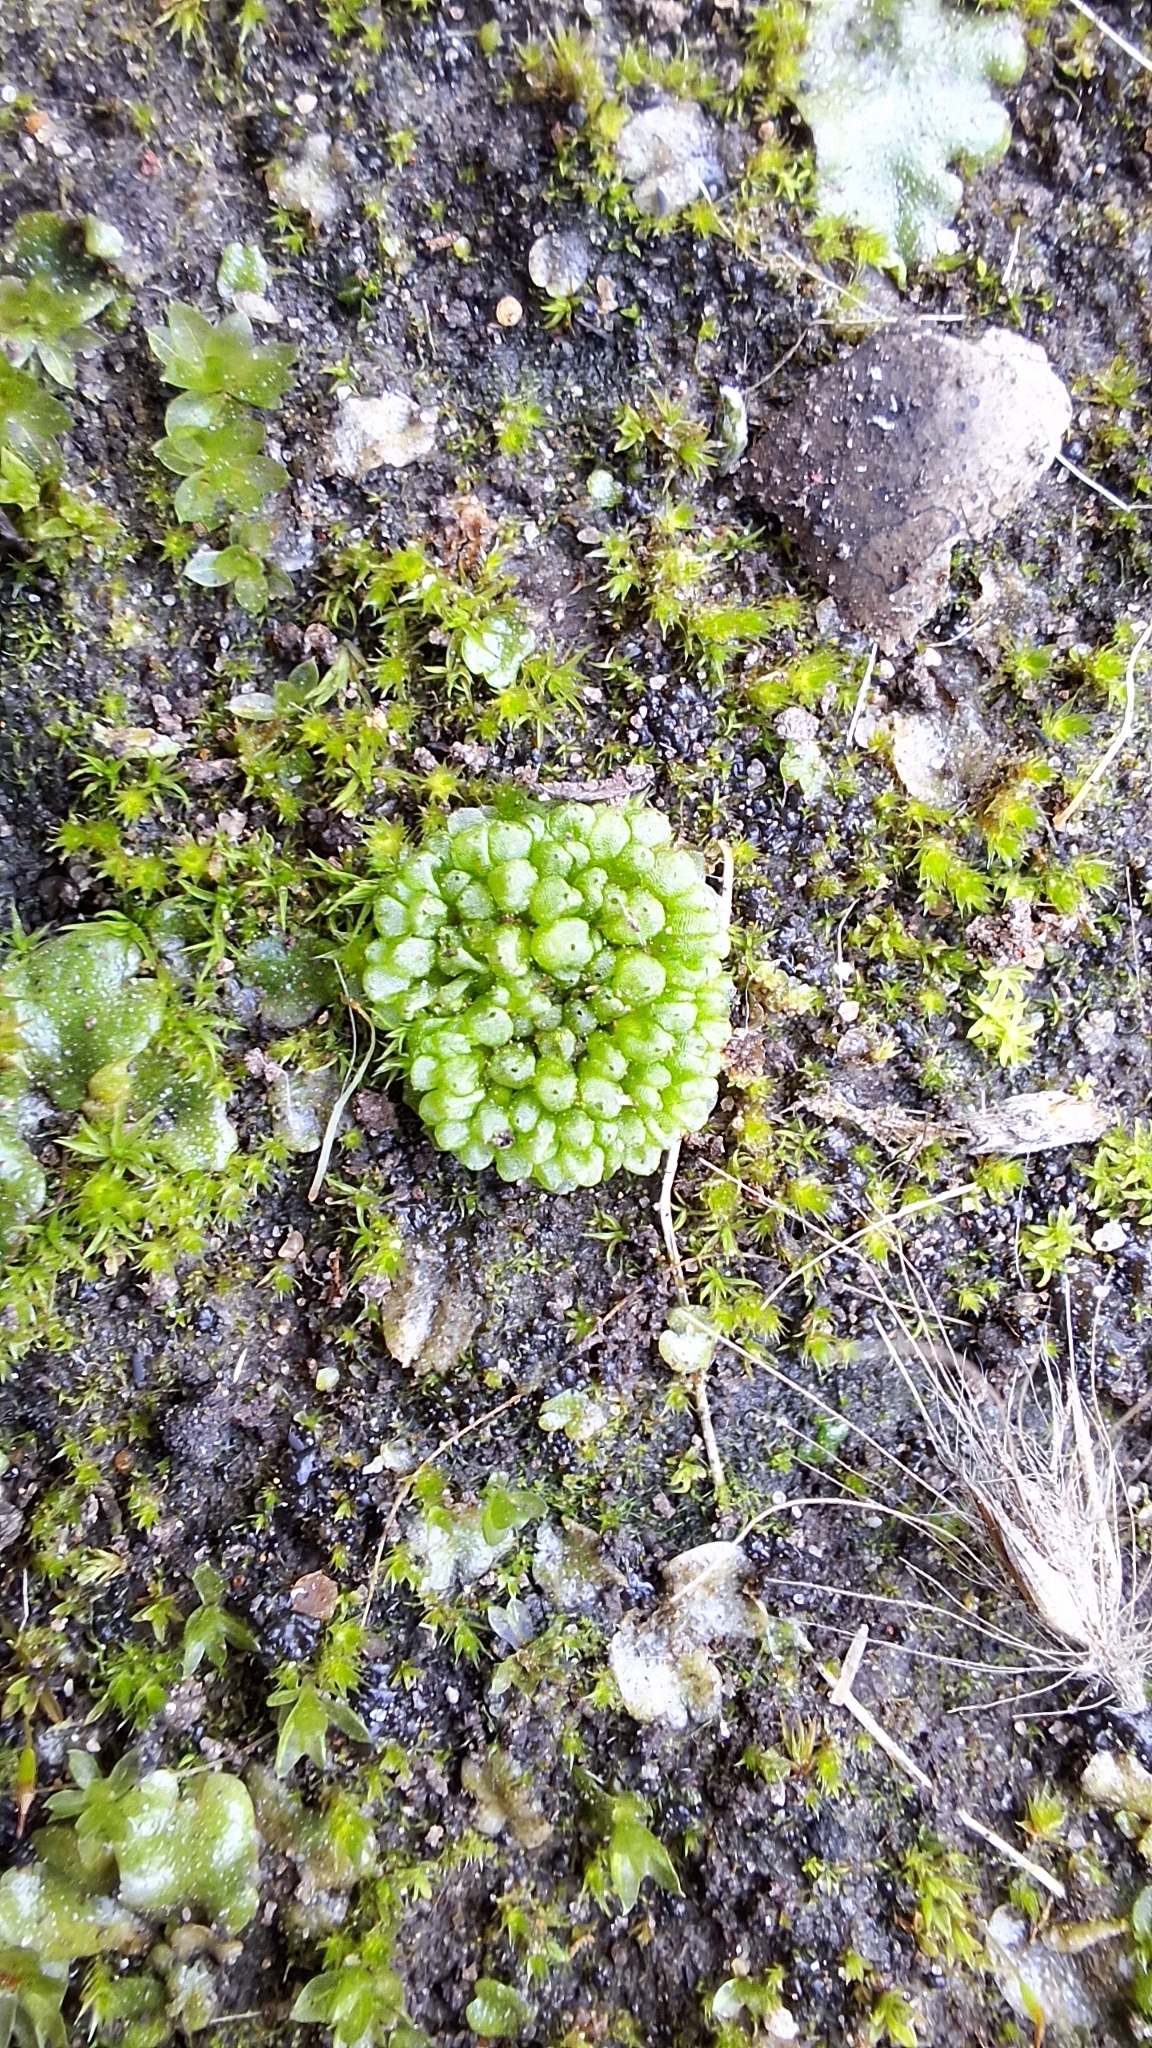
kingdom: Plantae
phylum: Marchantiophyta
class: Marchantiopsida
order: Sphaerocarpales
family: Sphaerocarpaceae
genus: Sphaerocarpos
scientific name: Sphaerocarpos texanus
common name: Texas balloonwort
